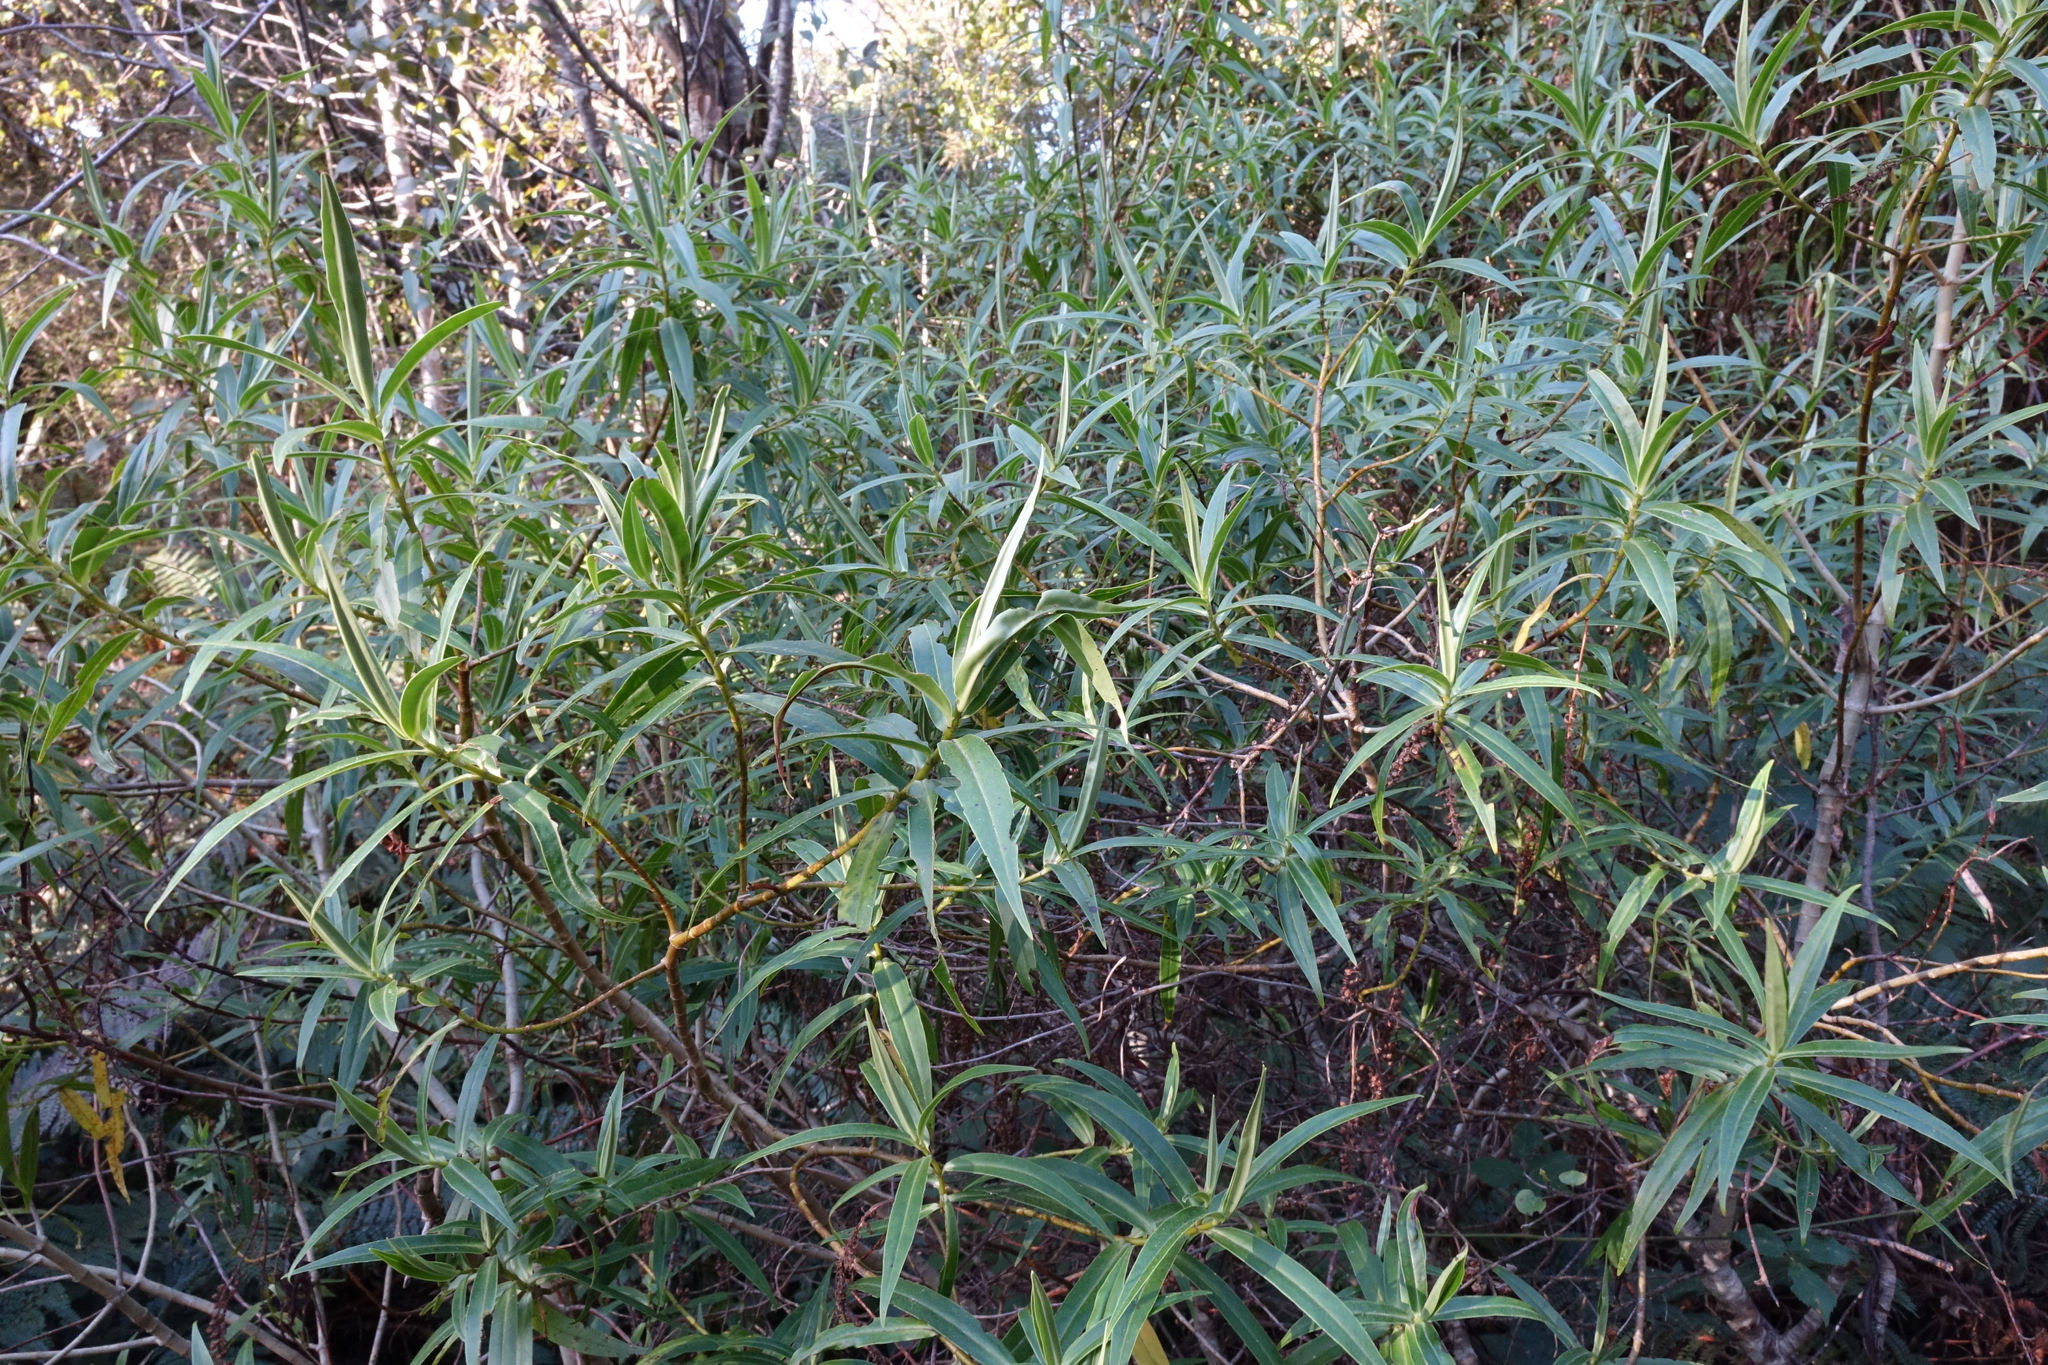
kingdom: Plantae
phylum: Tracheophyta
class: Magnoliopsida
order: Lamiales
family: Plantaginaceae
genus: Veronica
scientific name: Veronica salicifolia
